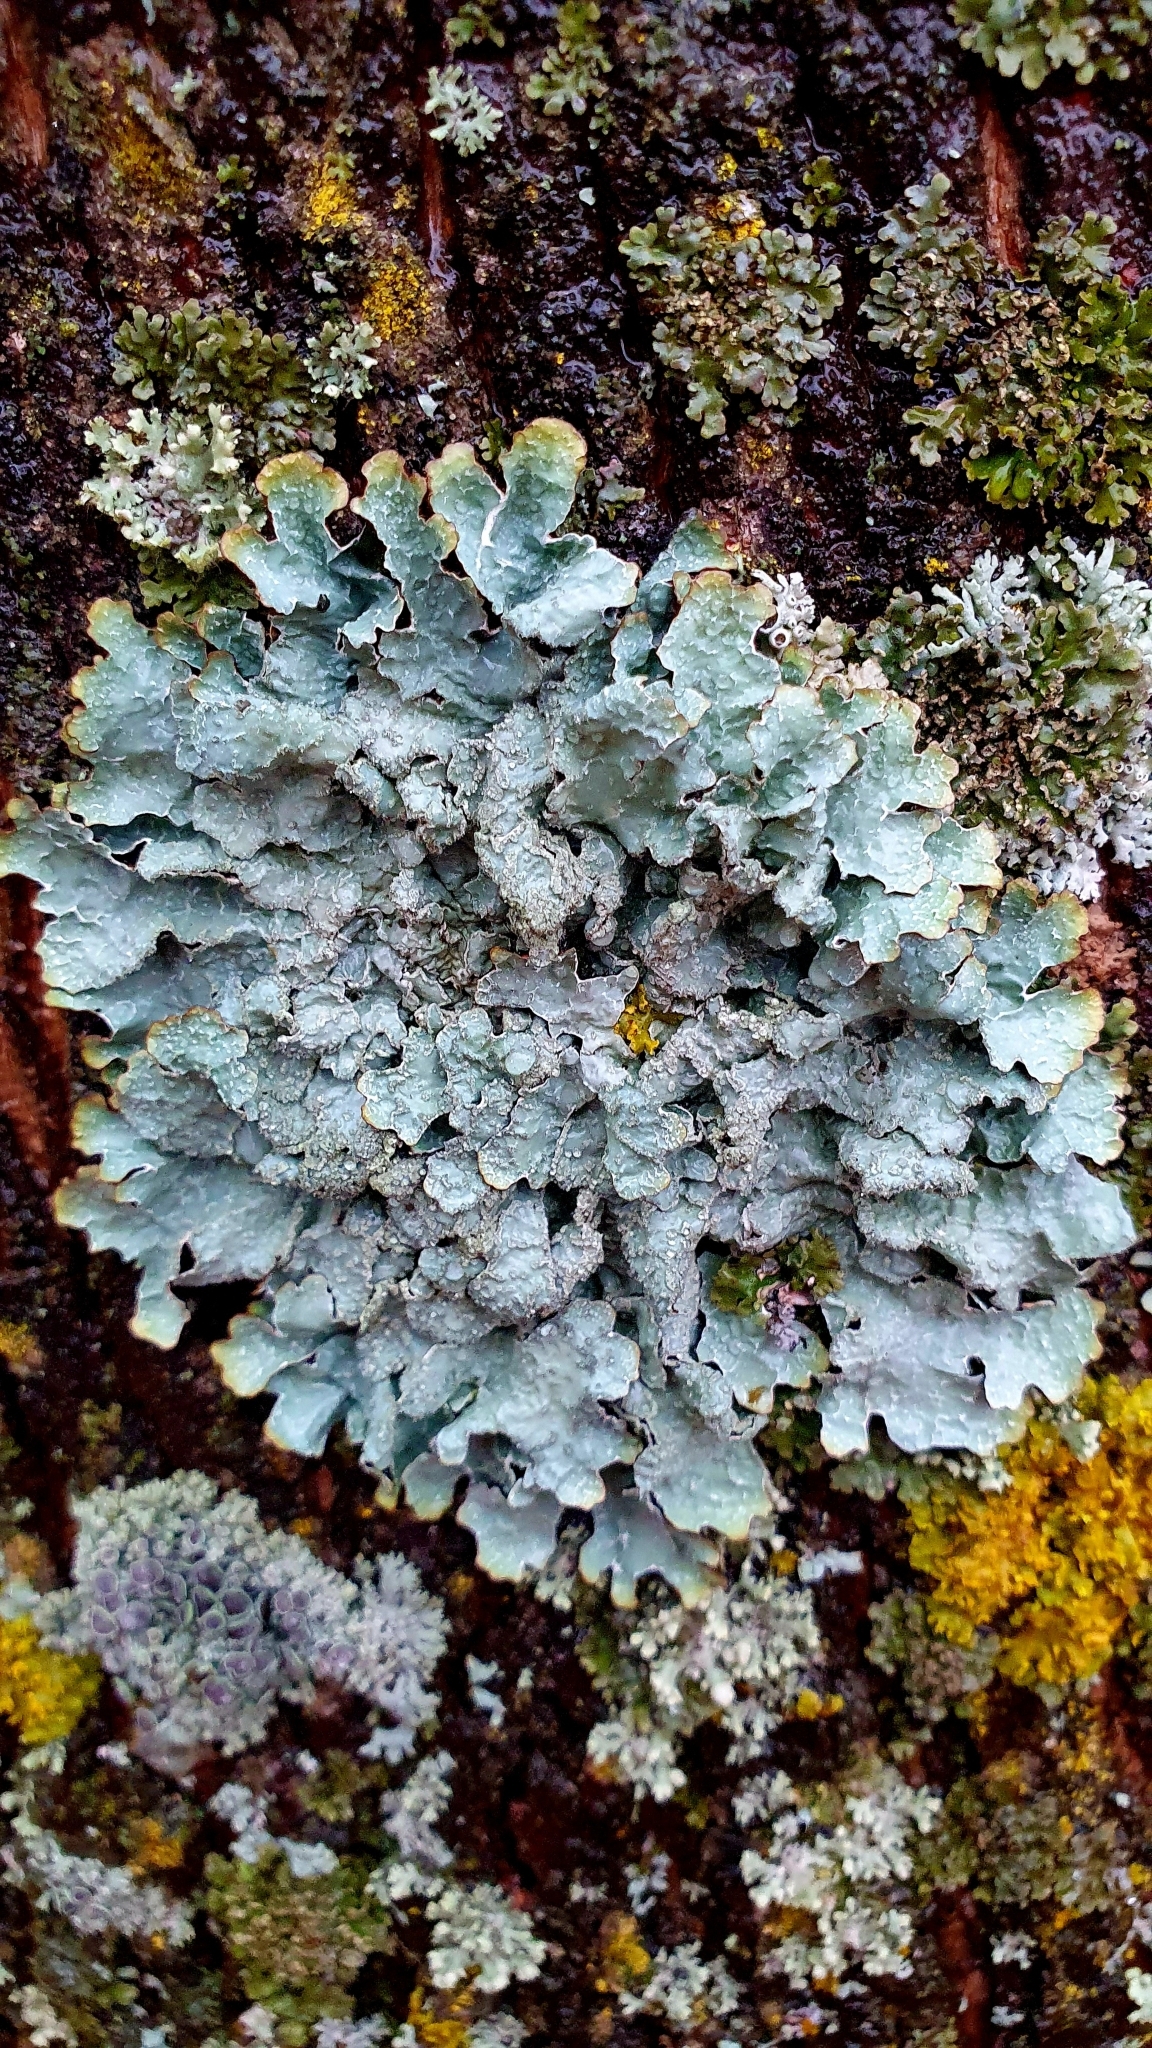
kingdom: Fungi
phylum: Ascomycota
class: Lecanoromycetes
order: Lecanorales
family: Parmeliaceae
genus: Parmelia
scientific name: Parmelia sulcata
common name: Netted shield lichen
